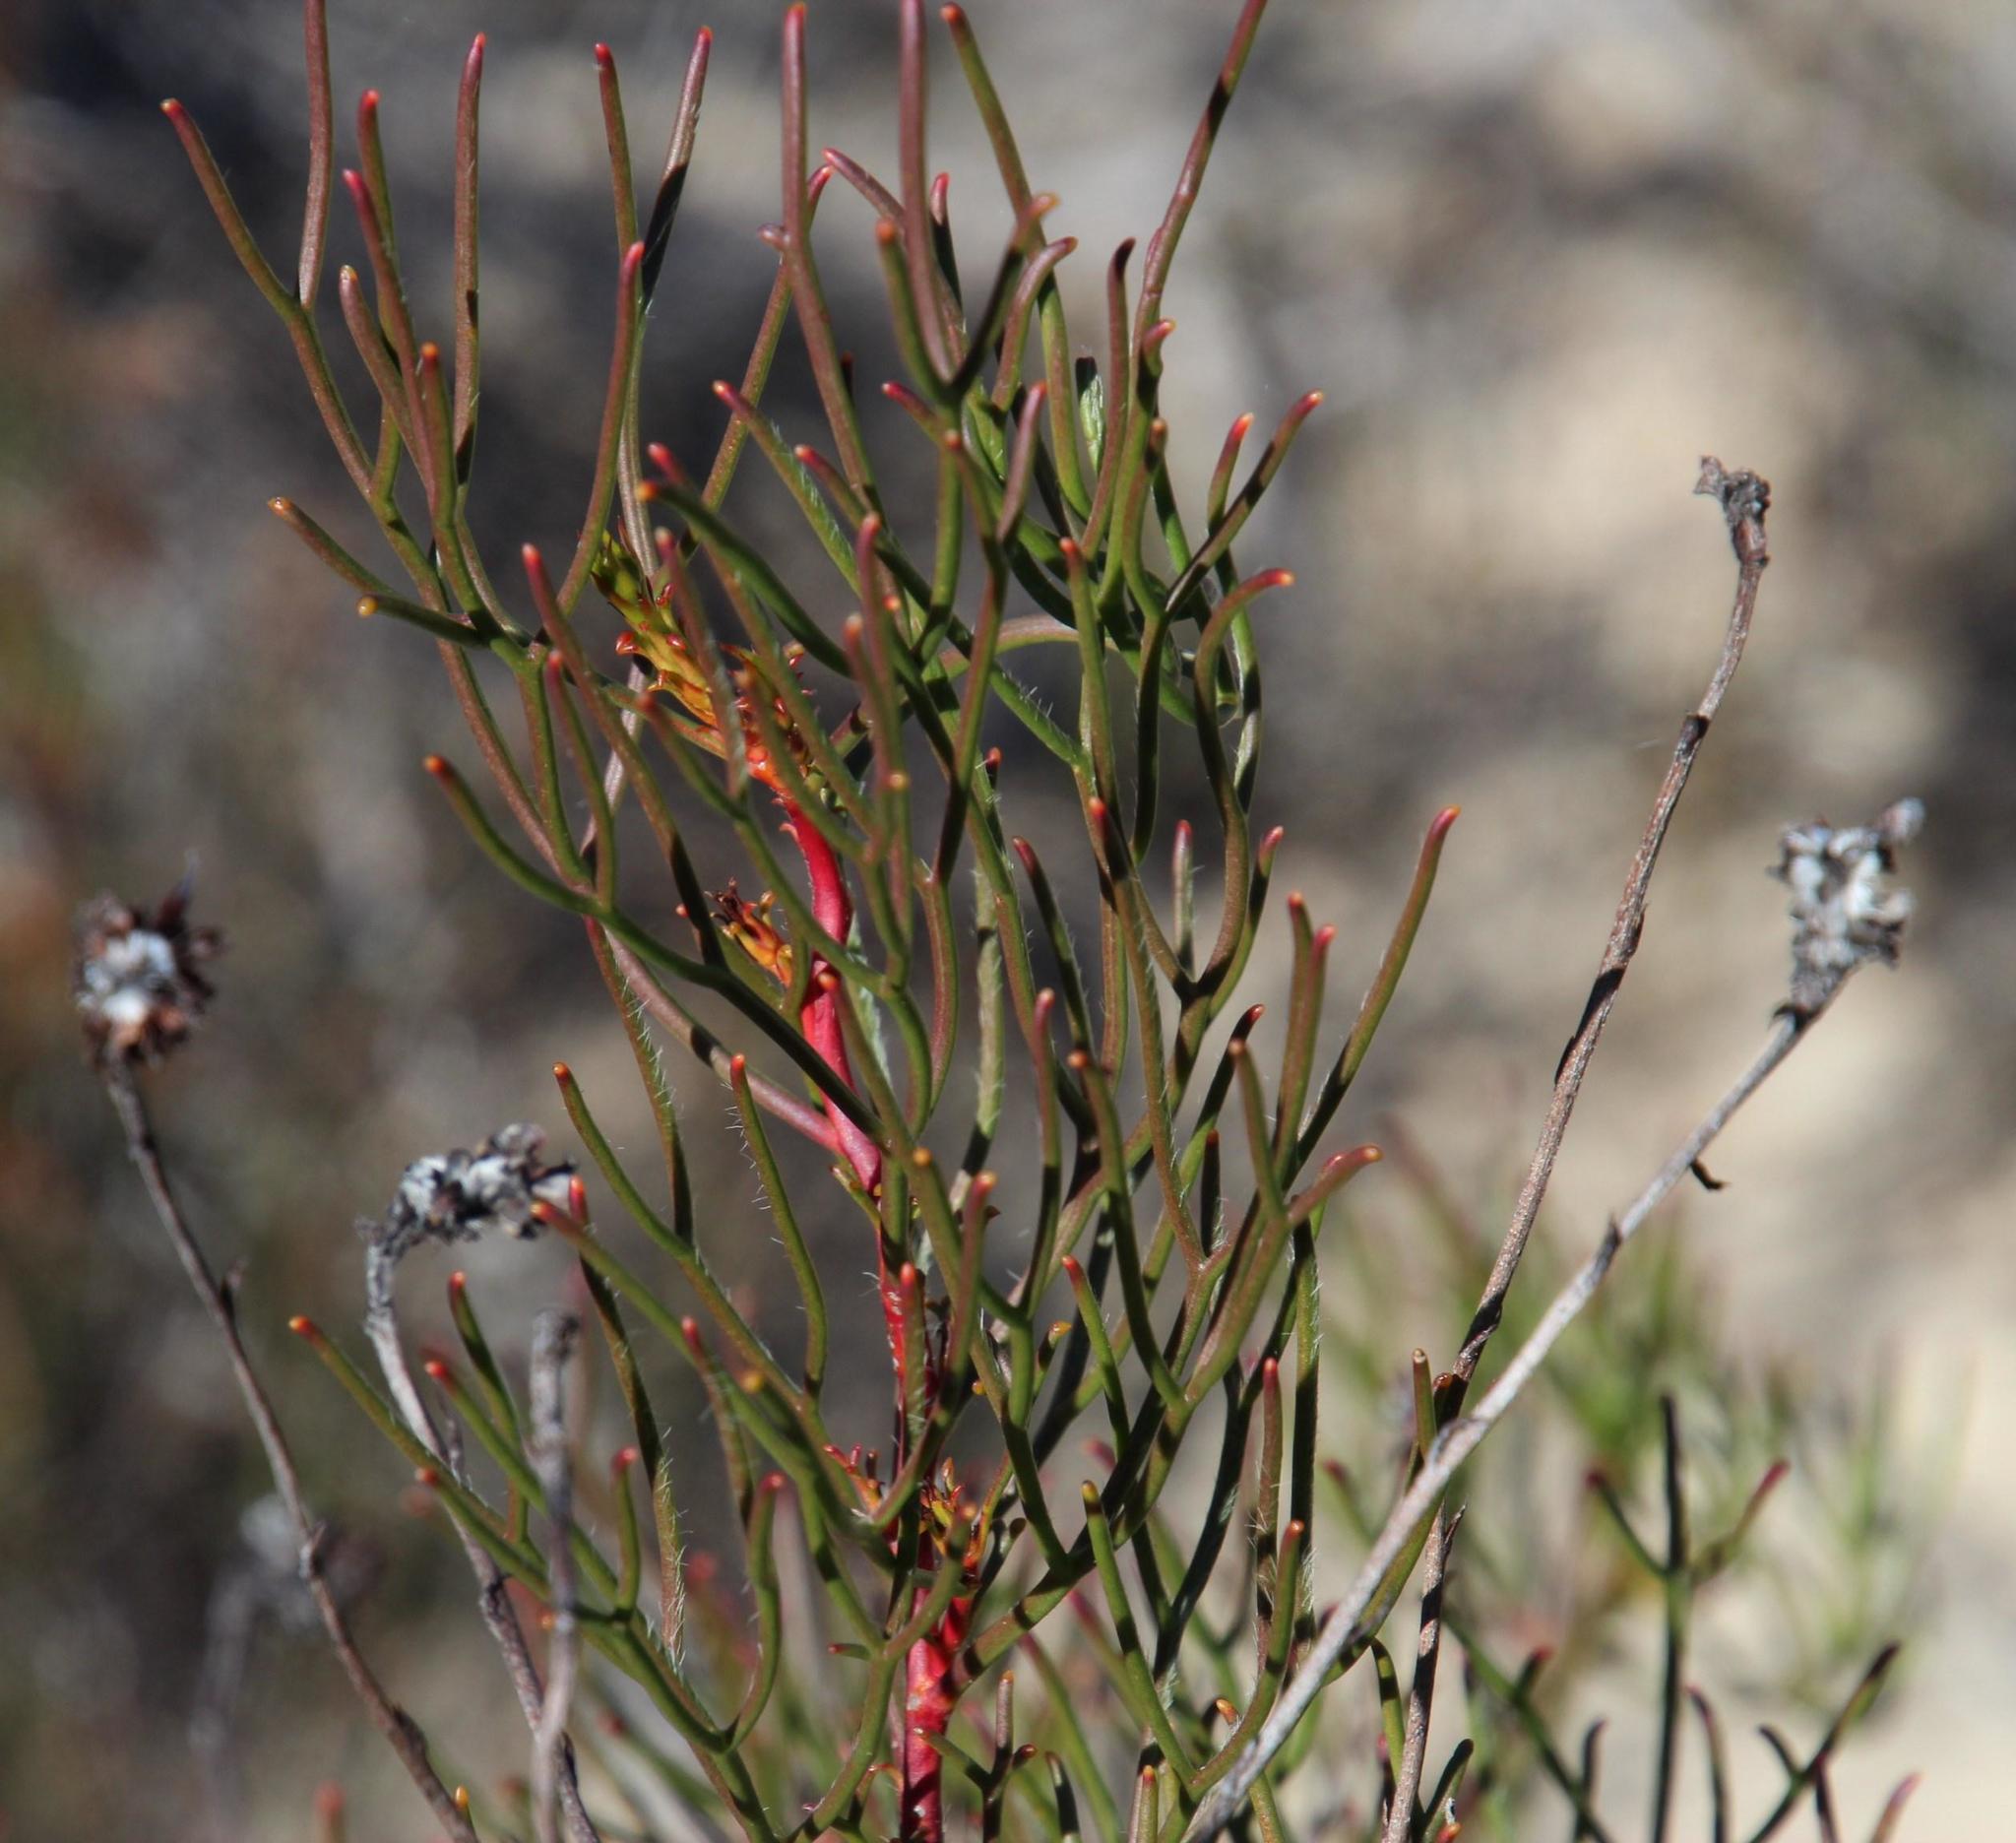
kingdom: Plantae
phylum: Tracheophyta
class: Magnoliopsida
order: Proteales
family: Proteaceae
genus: Serruria
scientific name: Serruria lacunosa
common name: Matsikamma spiderhead
